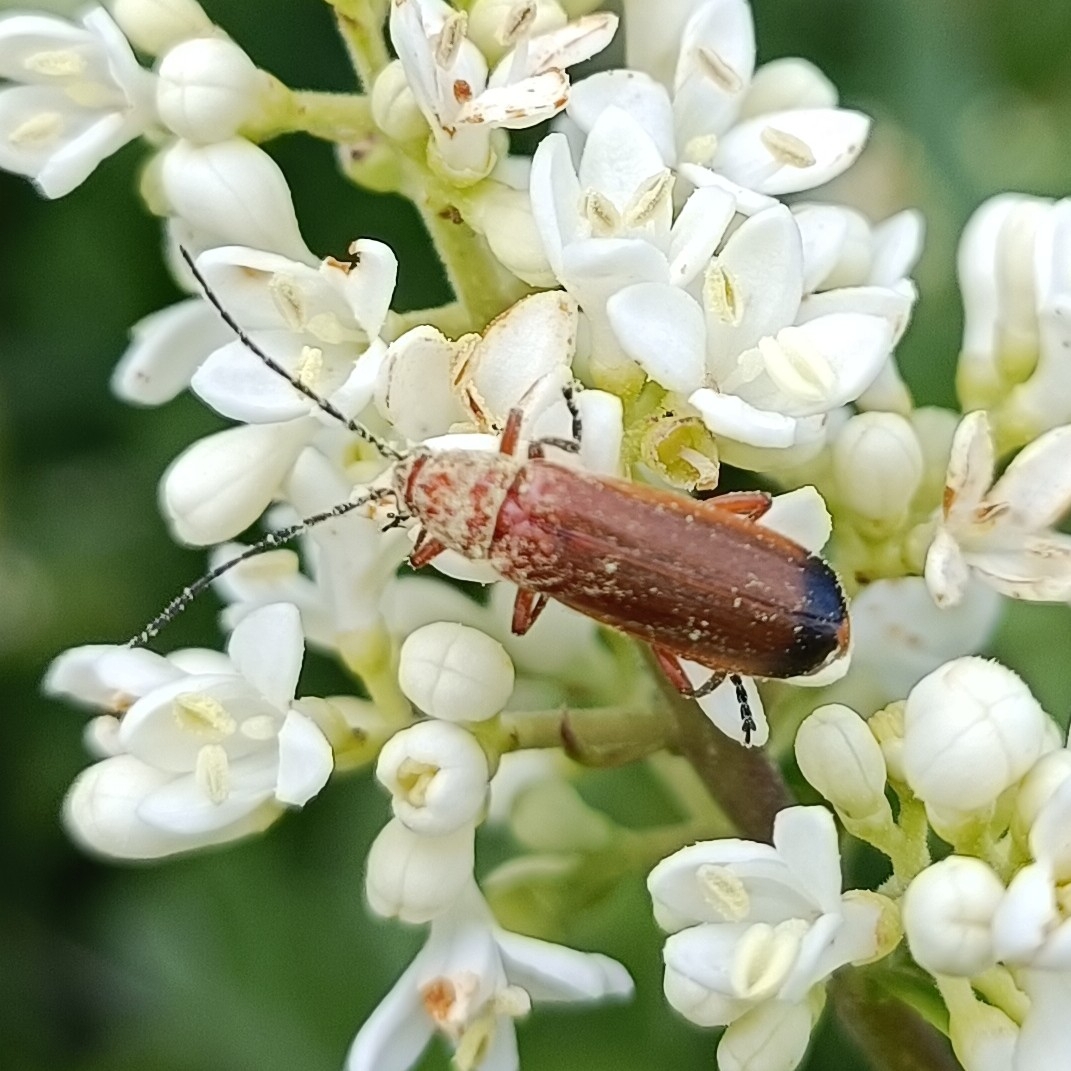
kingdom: Animalia
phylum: Arthropoda
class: Insecta
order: Coleoptera
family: Cantharidae
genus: Rhagonycha
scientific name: Rhagonycha fulva
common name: Common red soldier beetle
